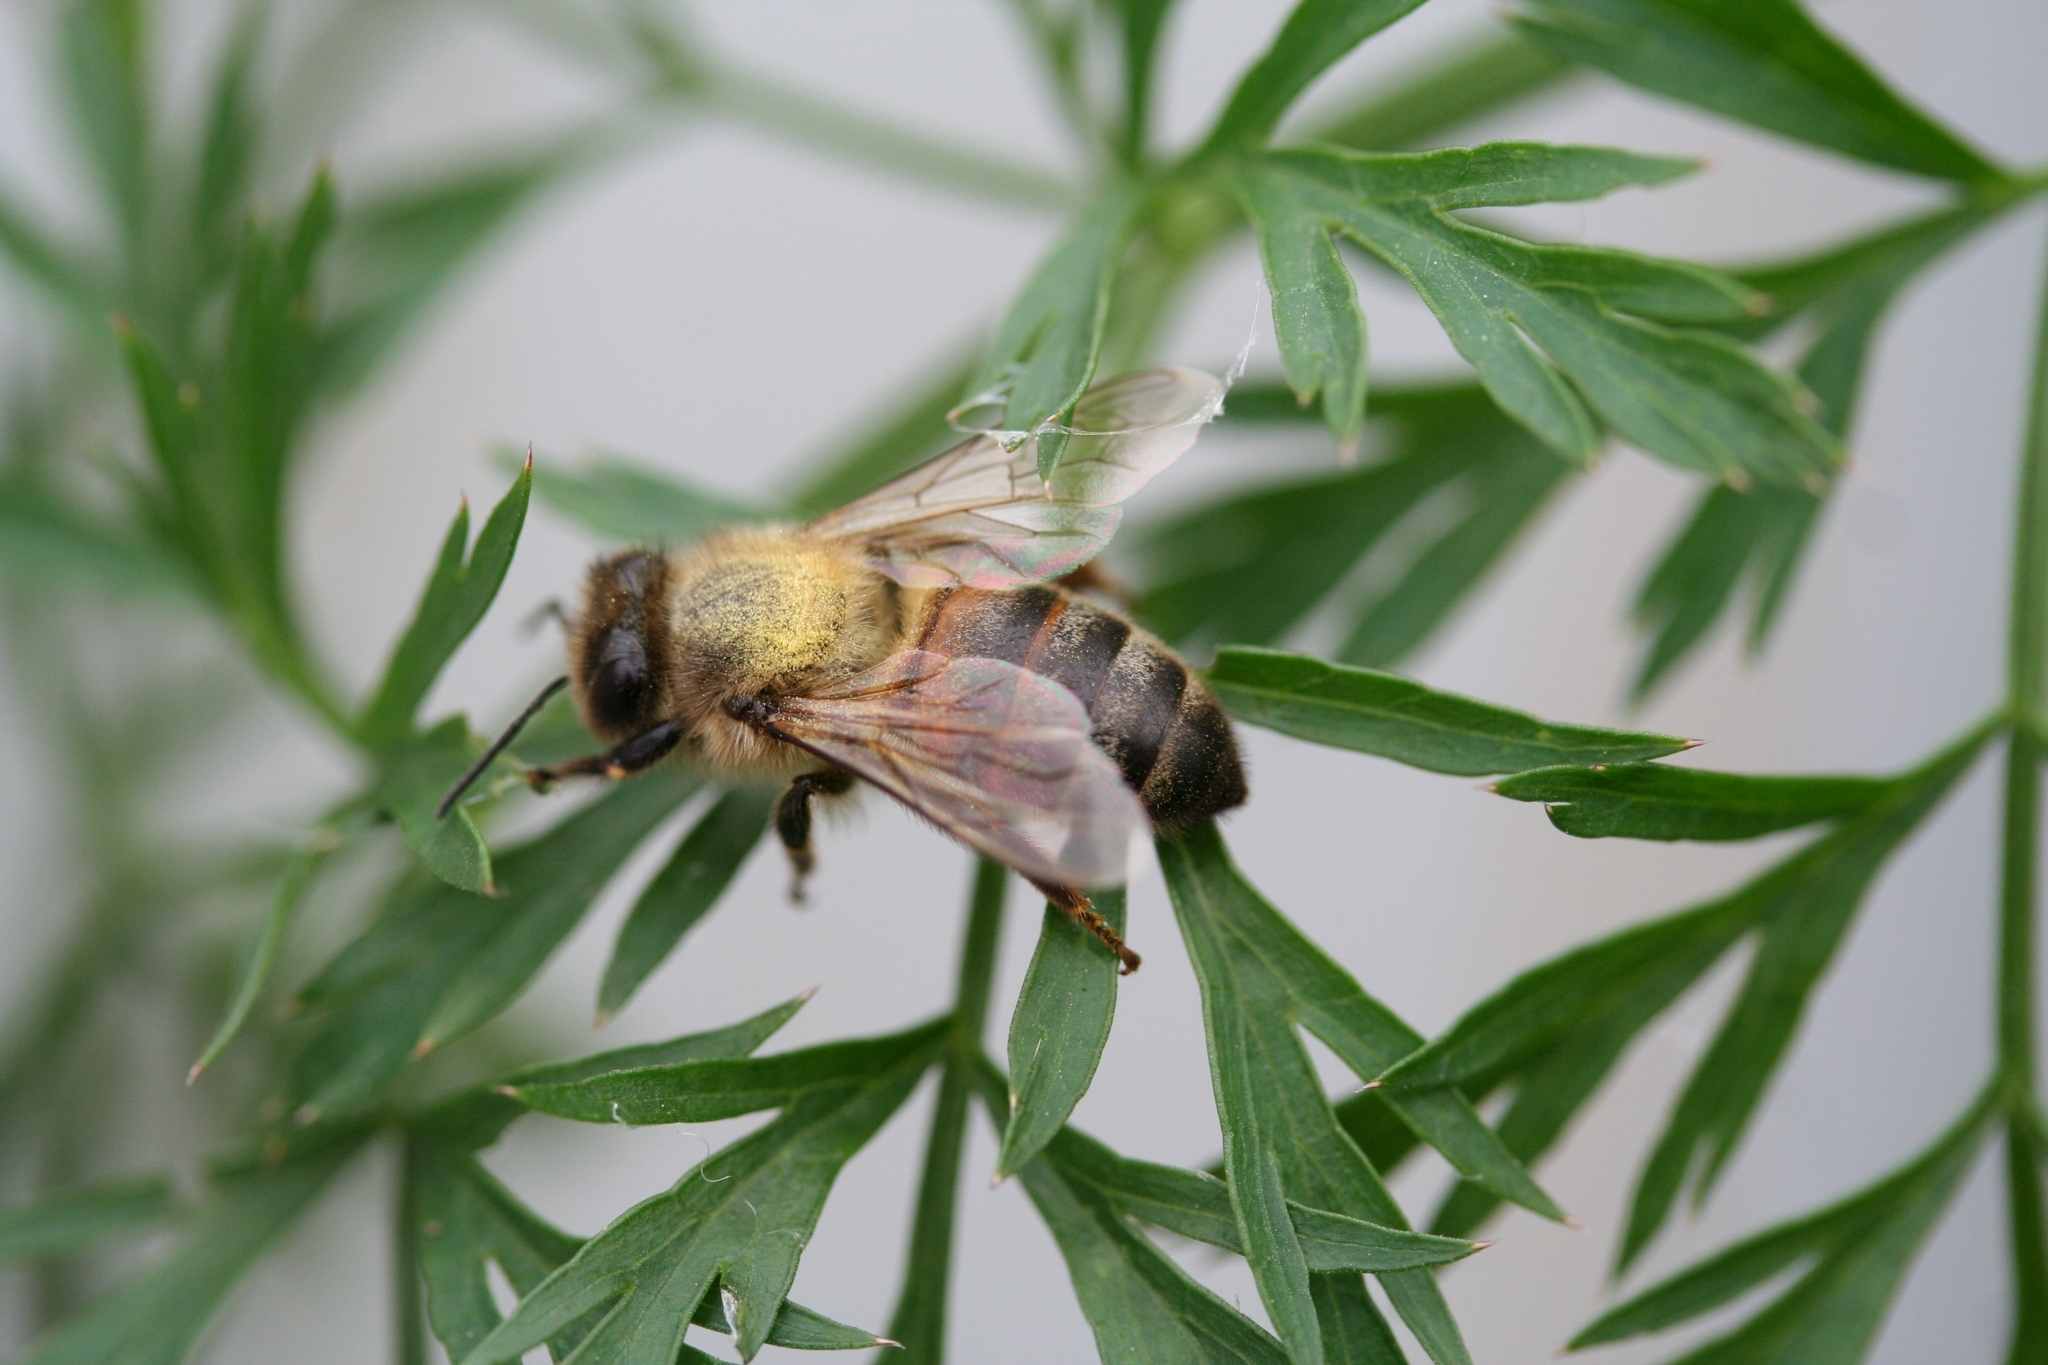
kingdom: Animalia
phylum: Arthropoda
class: Insecta
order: Hymenoptera
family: Apidae
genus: Apis
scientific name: Apis mellifera
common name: Honey bee
